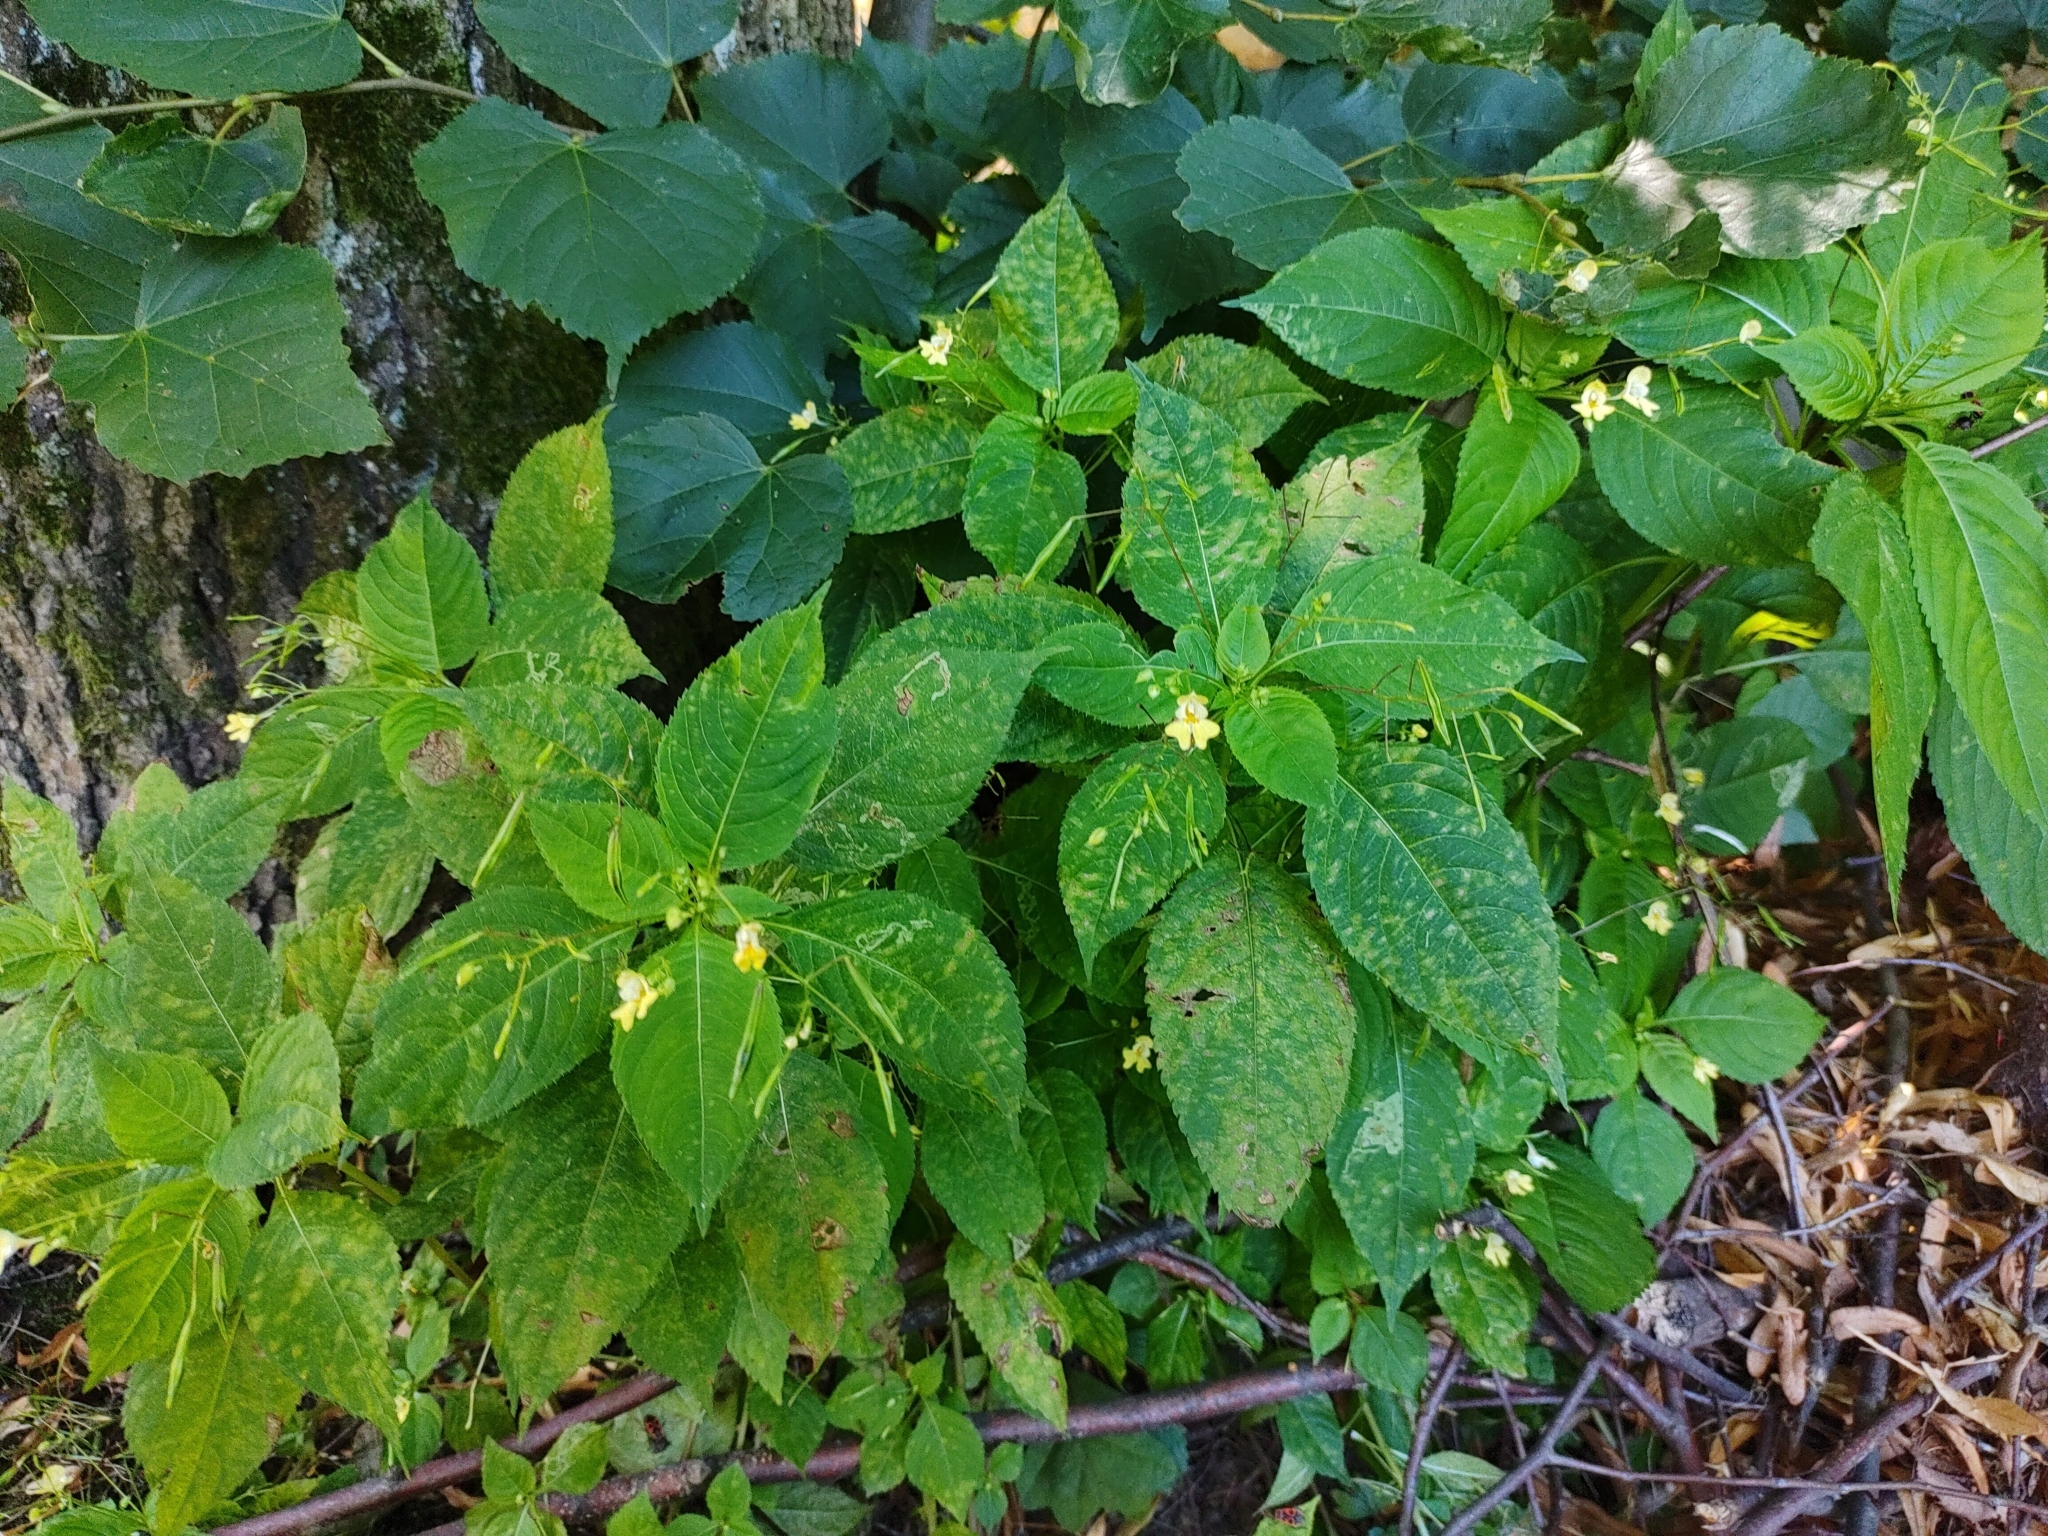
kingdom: Plantae
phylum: Tracheophyta
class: Magnoliopsida
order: Ericales
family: Balsaminaceae
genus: Impatiens
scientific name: Impatiens parviflora
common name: Small balsam
